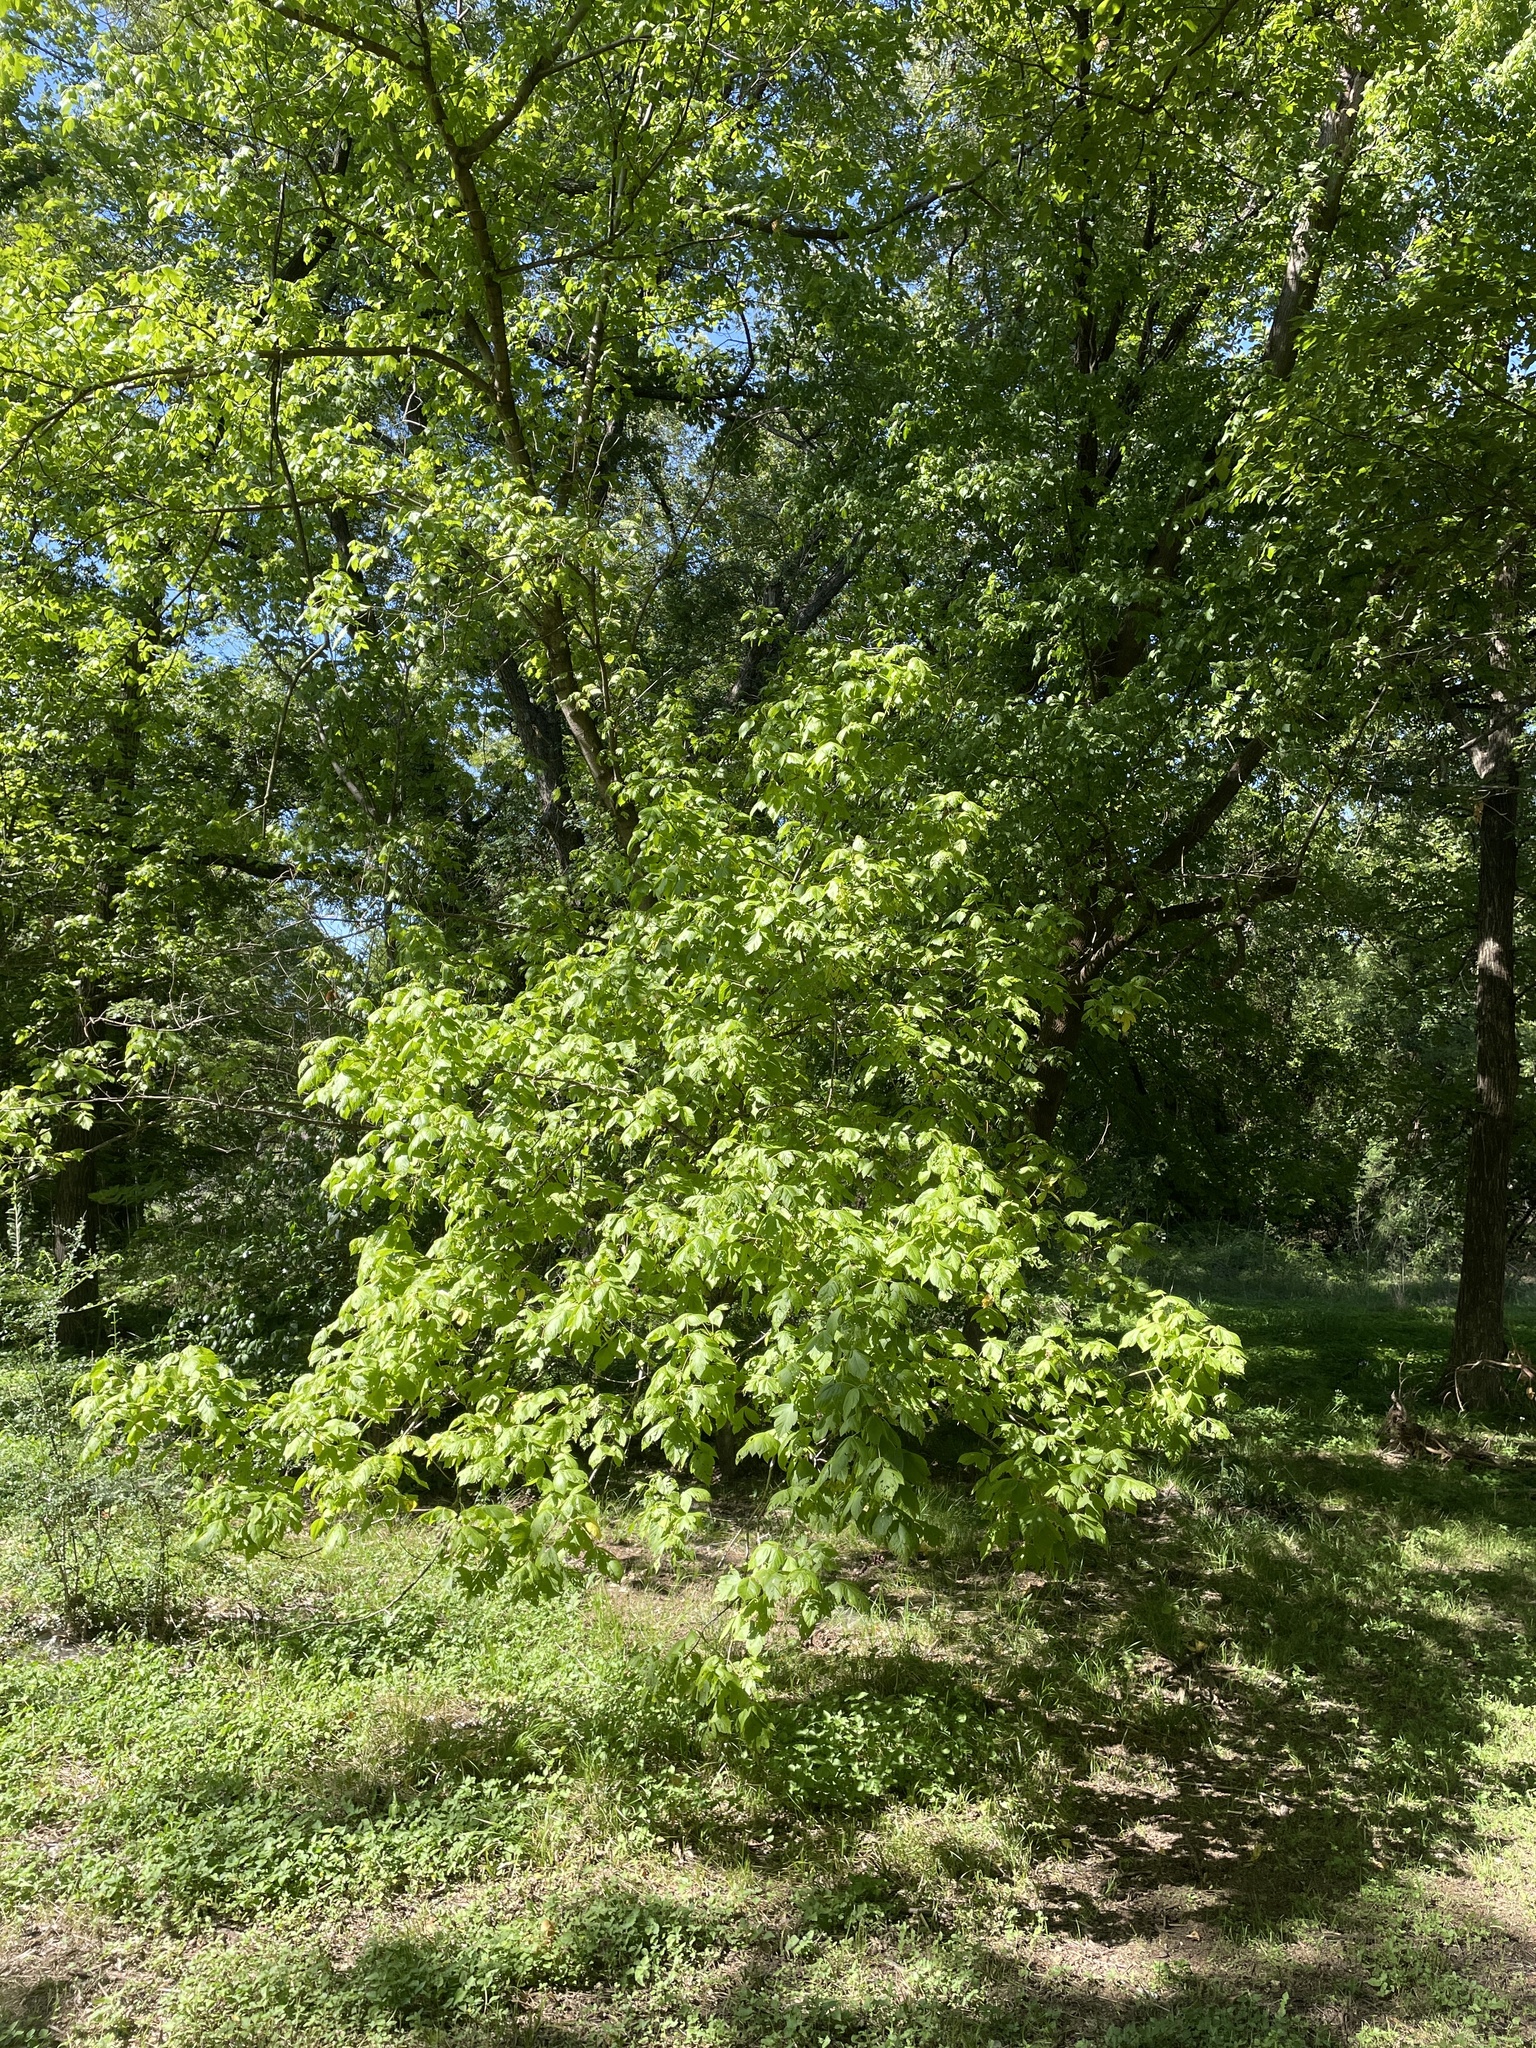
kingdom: Plantae
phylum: Tracheophyta
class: Magnoliopsida
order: Sapindales
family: Sapindaceae
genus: Acer
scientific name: Acer negundo
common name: Ashleaf maple
